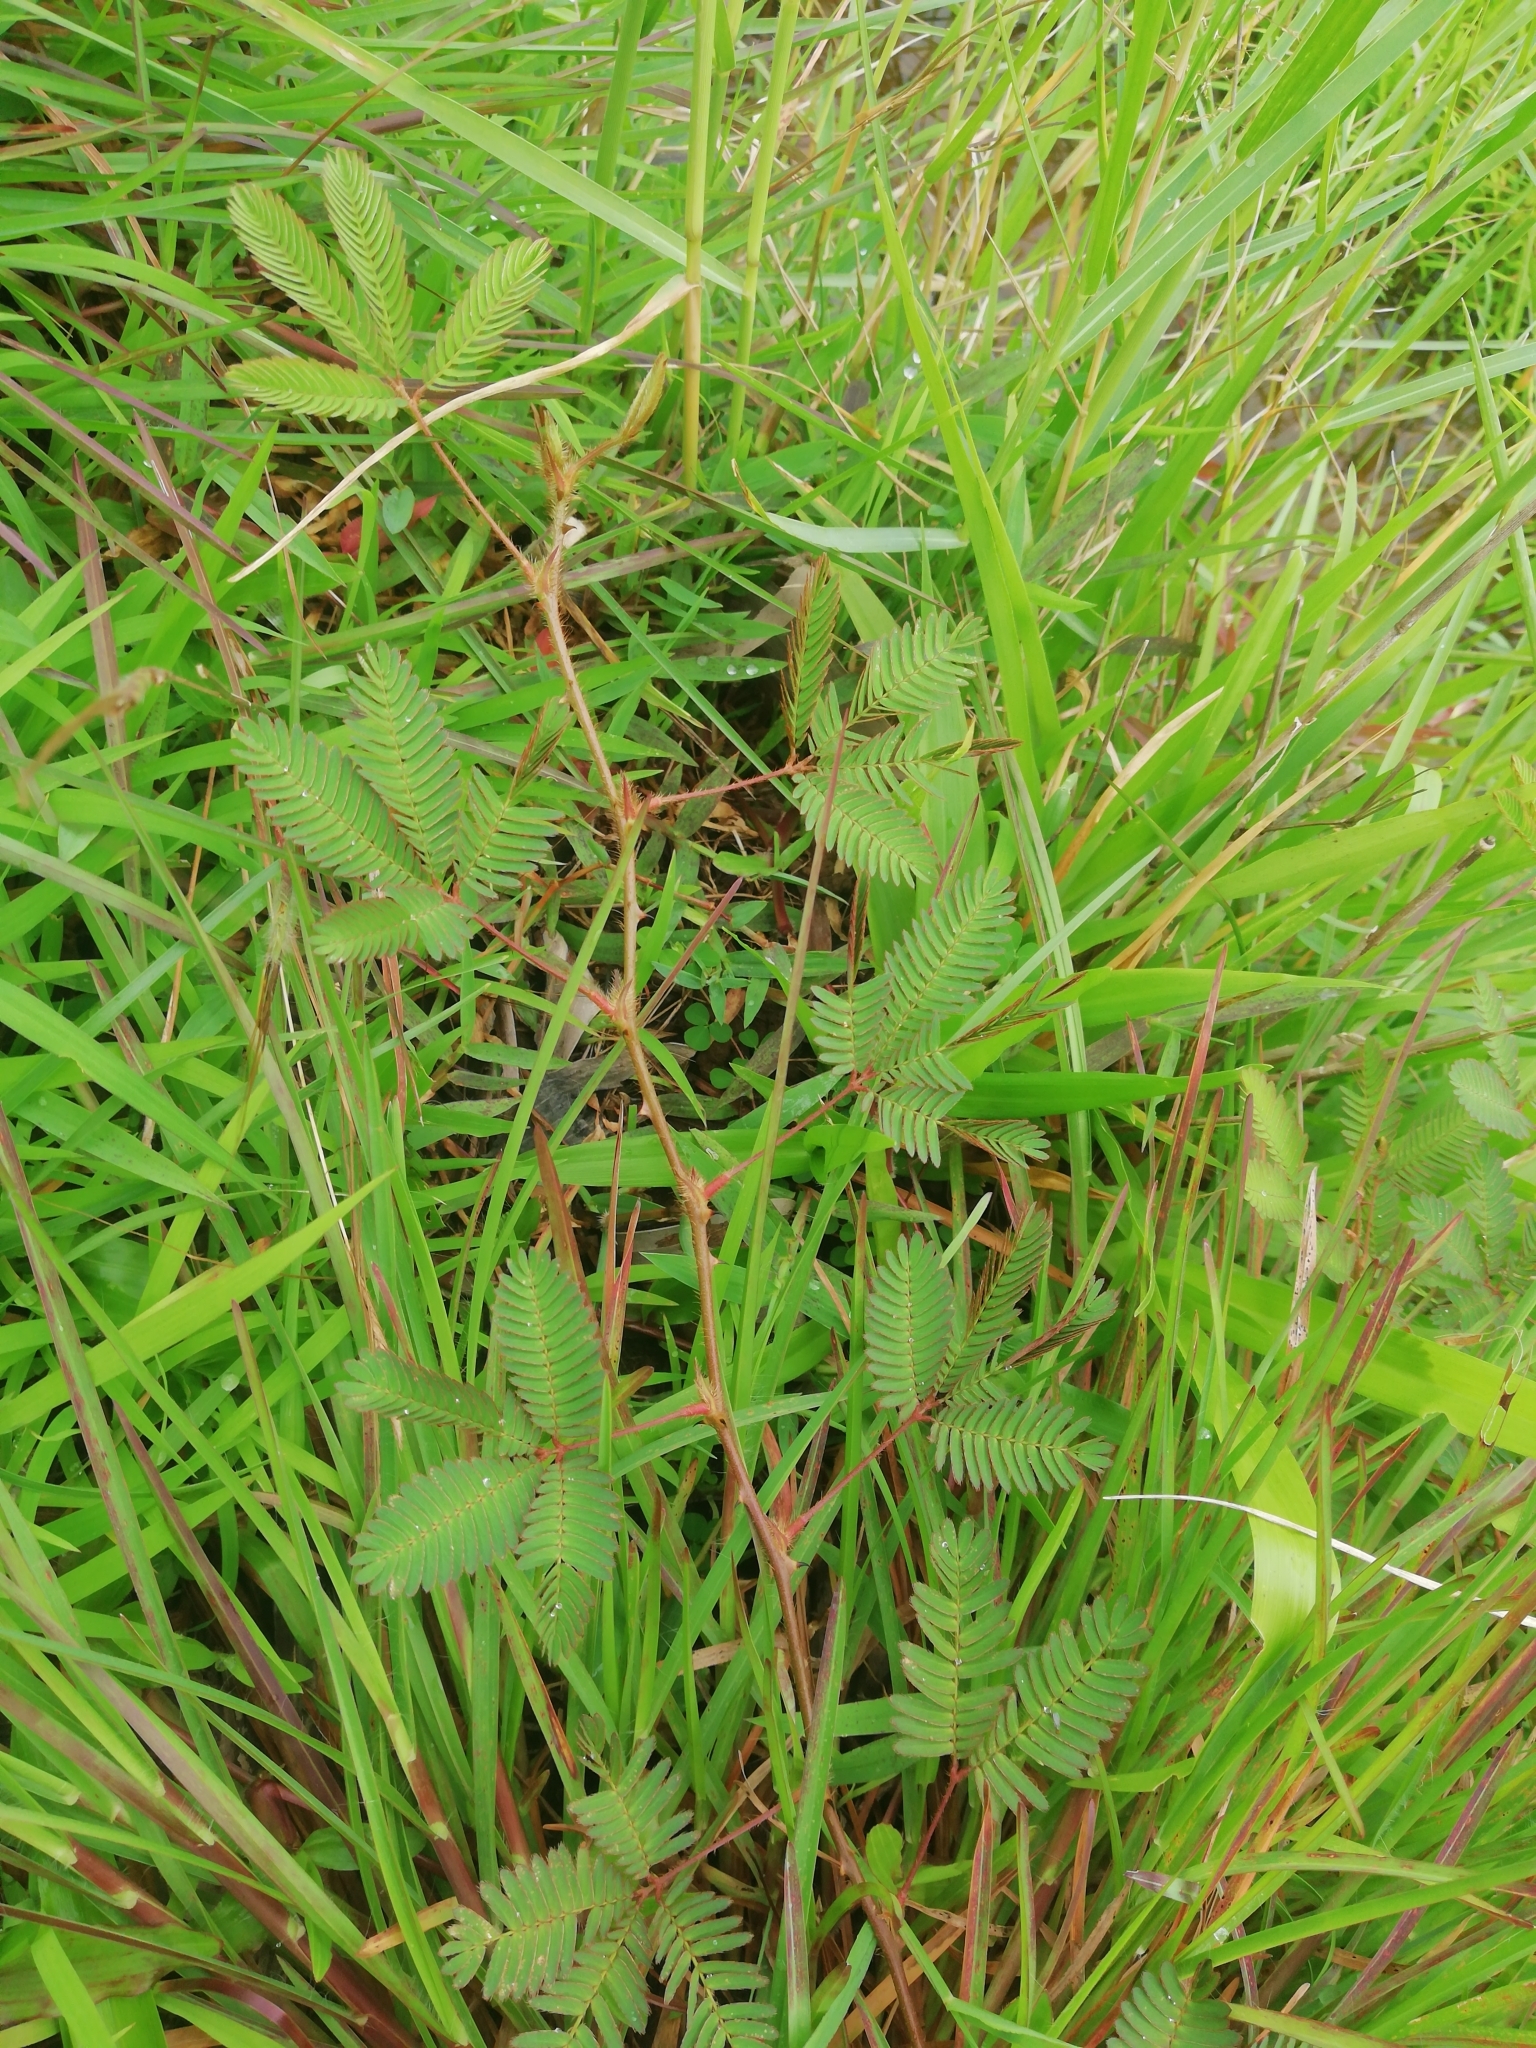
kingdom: Plantae
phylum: Tracheophyta
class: Magnoliopsida
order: Fabales
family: Fabaceae
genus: Mimosa
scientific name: Mimosa pudica
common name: Sensitive plant
